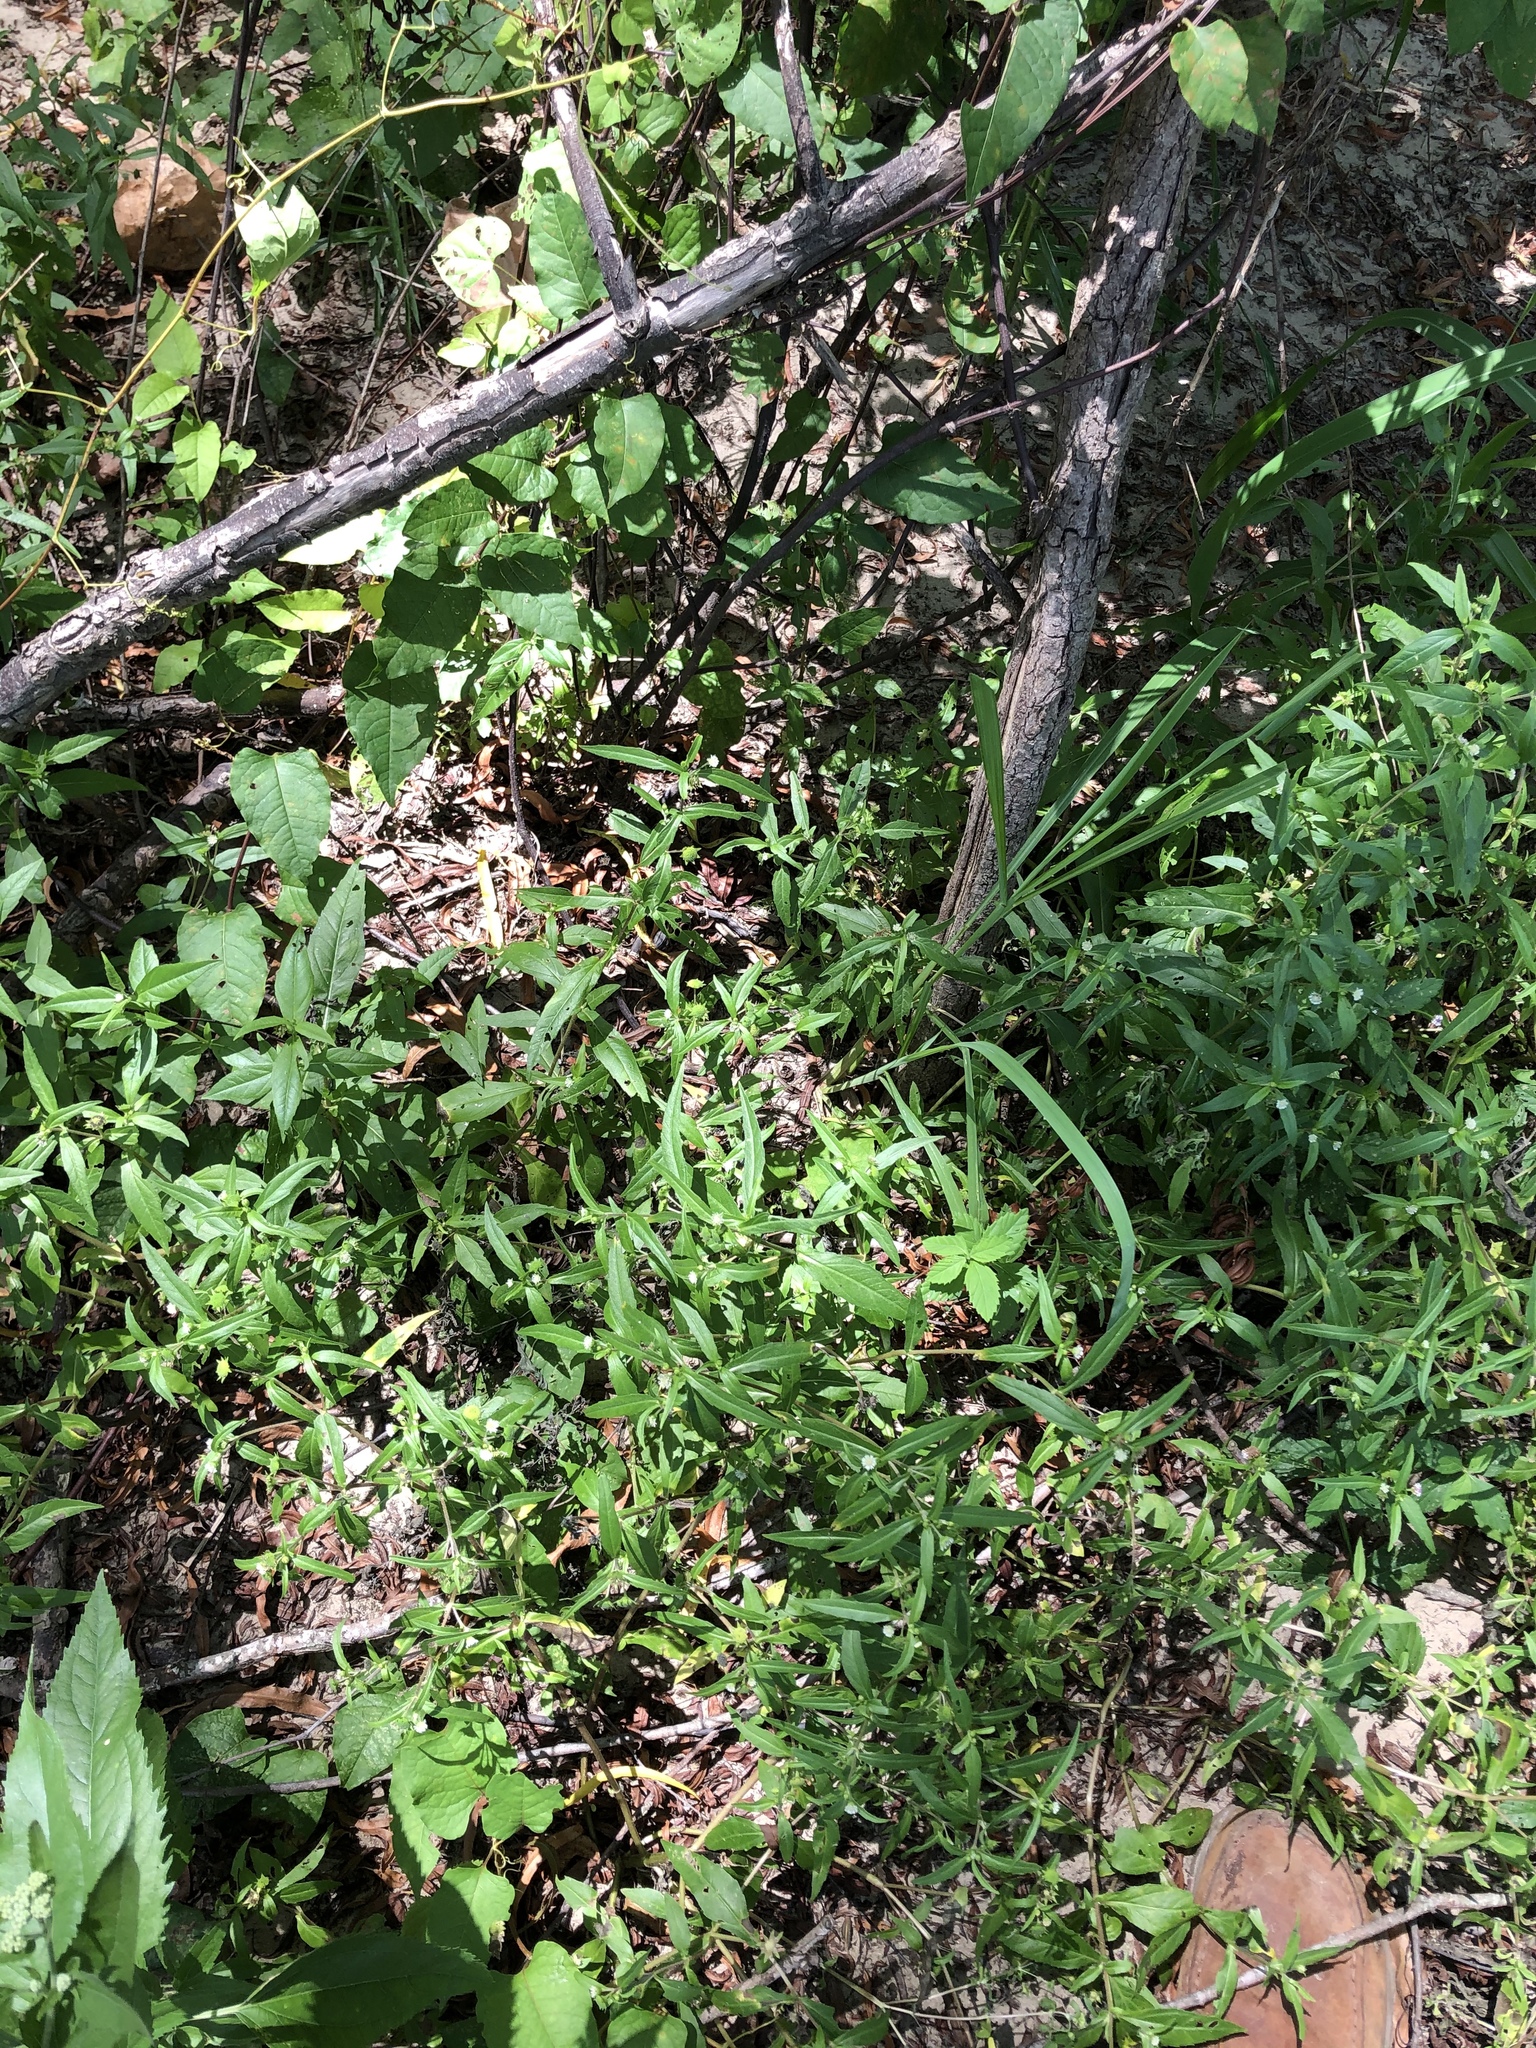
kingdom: Plantae
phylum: Tracheophyta
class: Magnoliopsida
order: Asterales
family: Asteraceae
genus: Eclipta
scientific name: Eclipta prostrata
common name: False daisy
